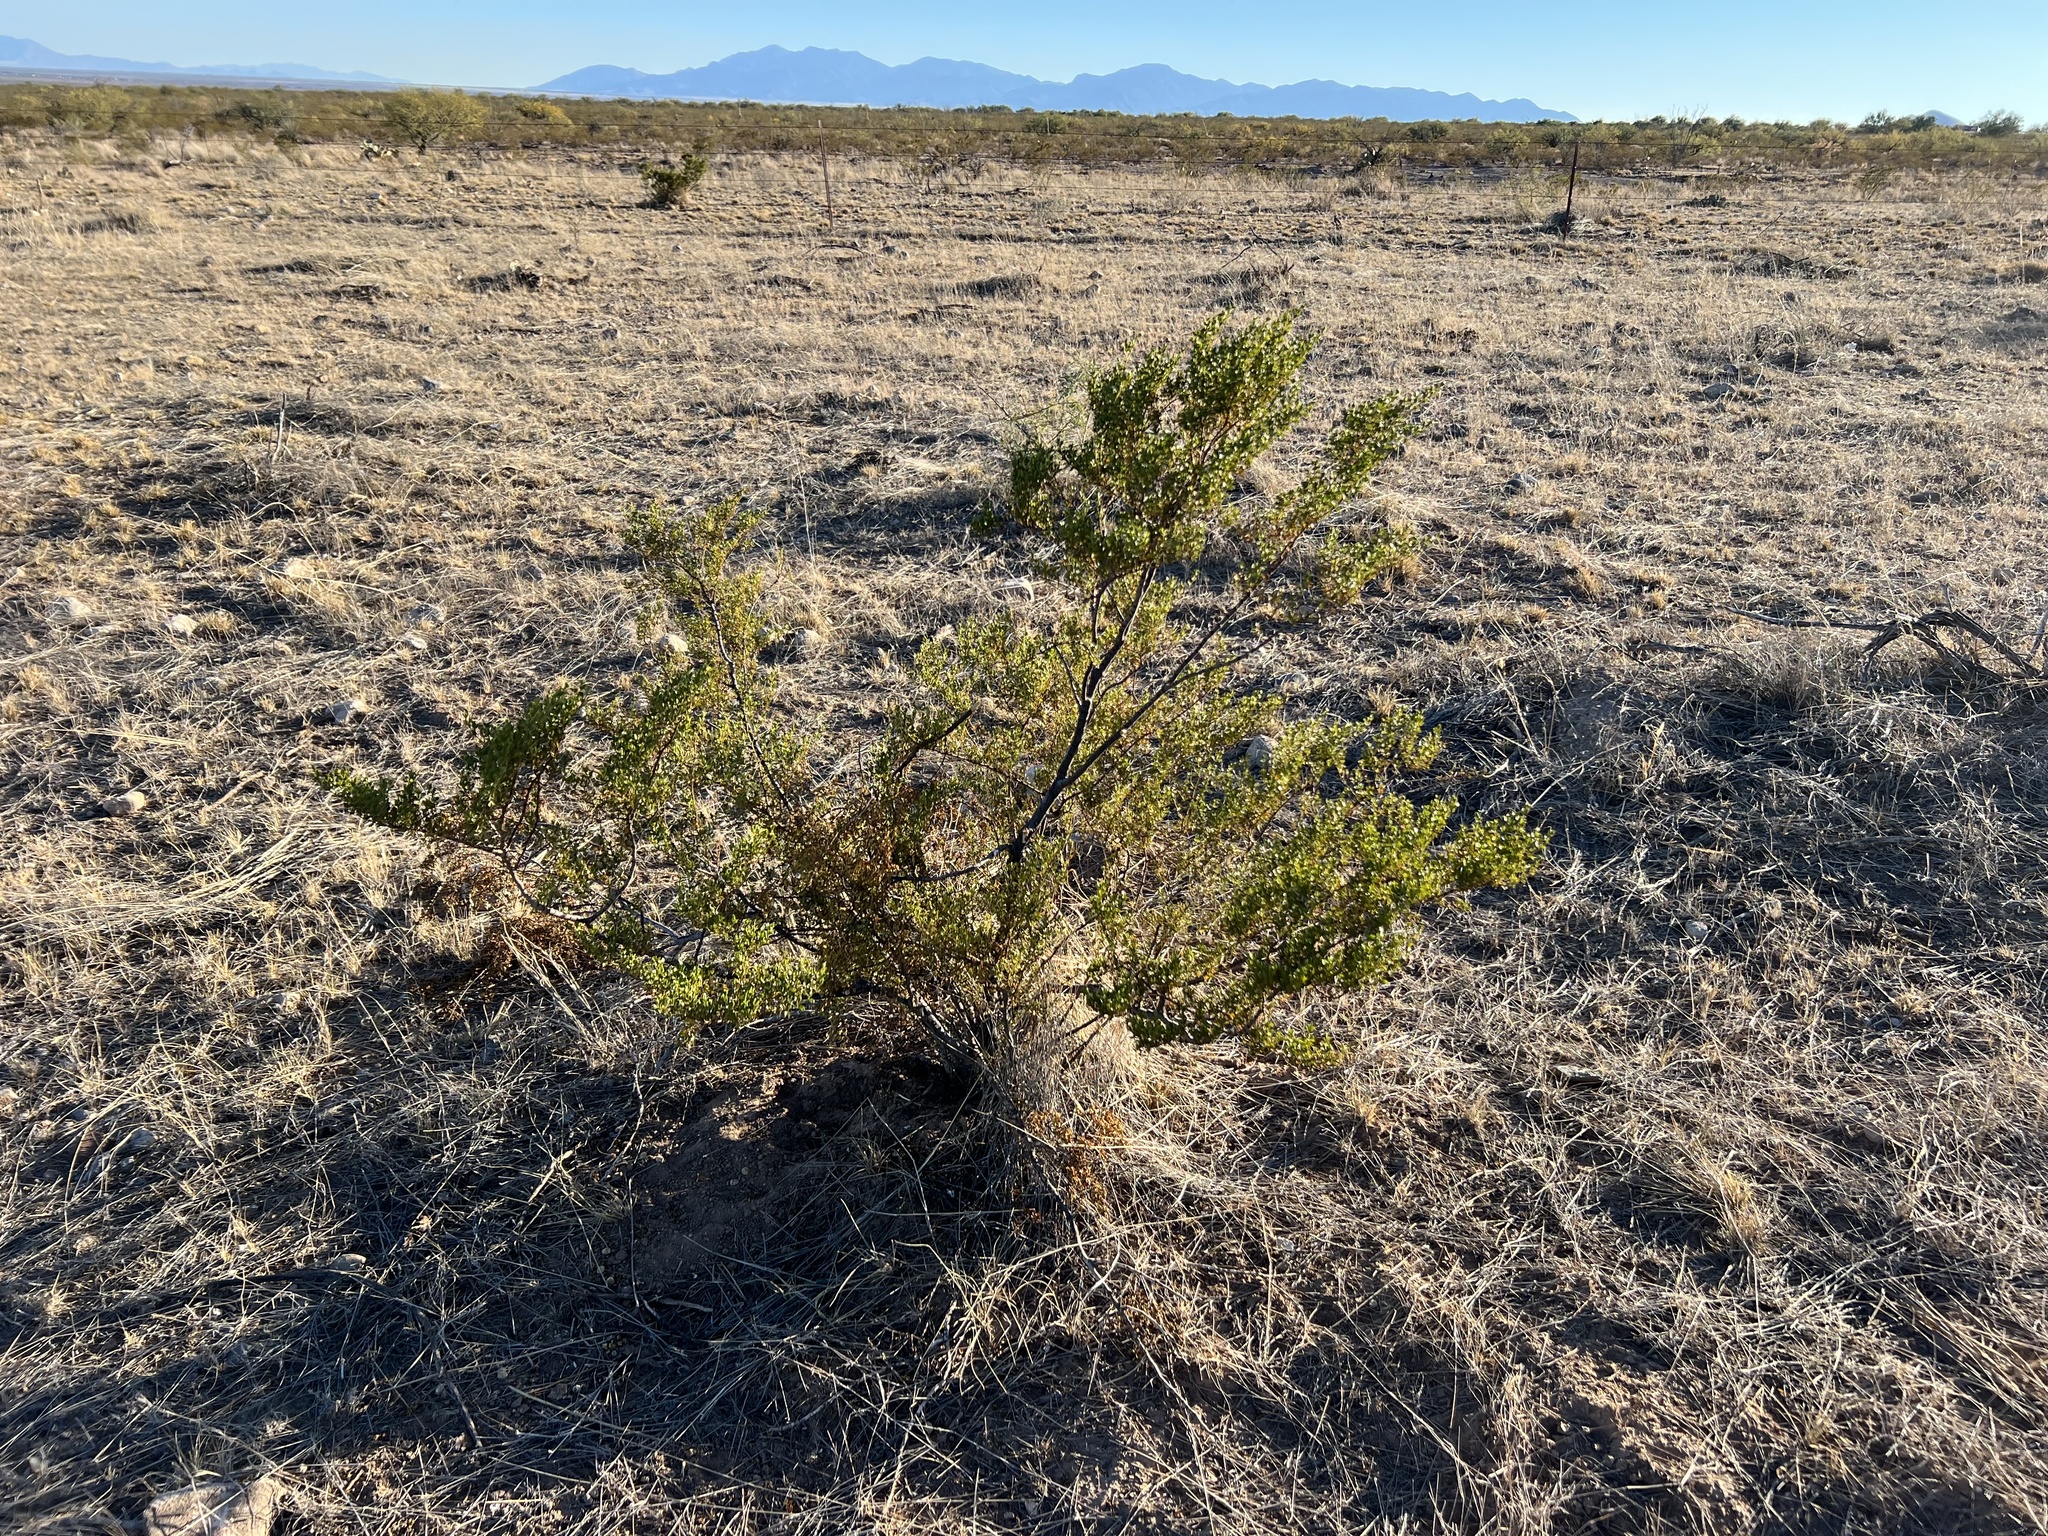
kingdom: Plantae
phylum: Tracheophyta
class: Magnoliopsida
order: Zygophyllales
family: Zygophyllaceae
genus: Larrea
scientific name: Larrea tridentata
